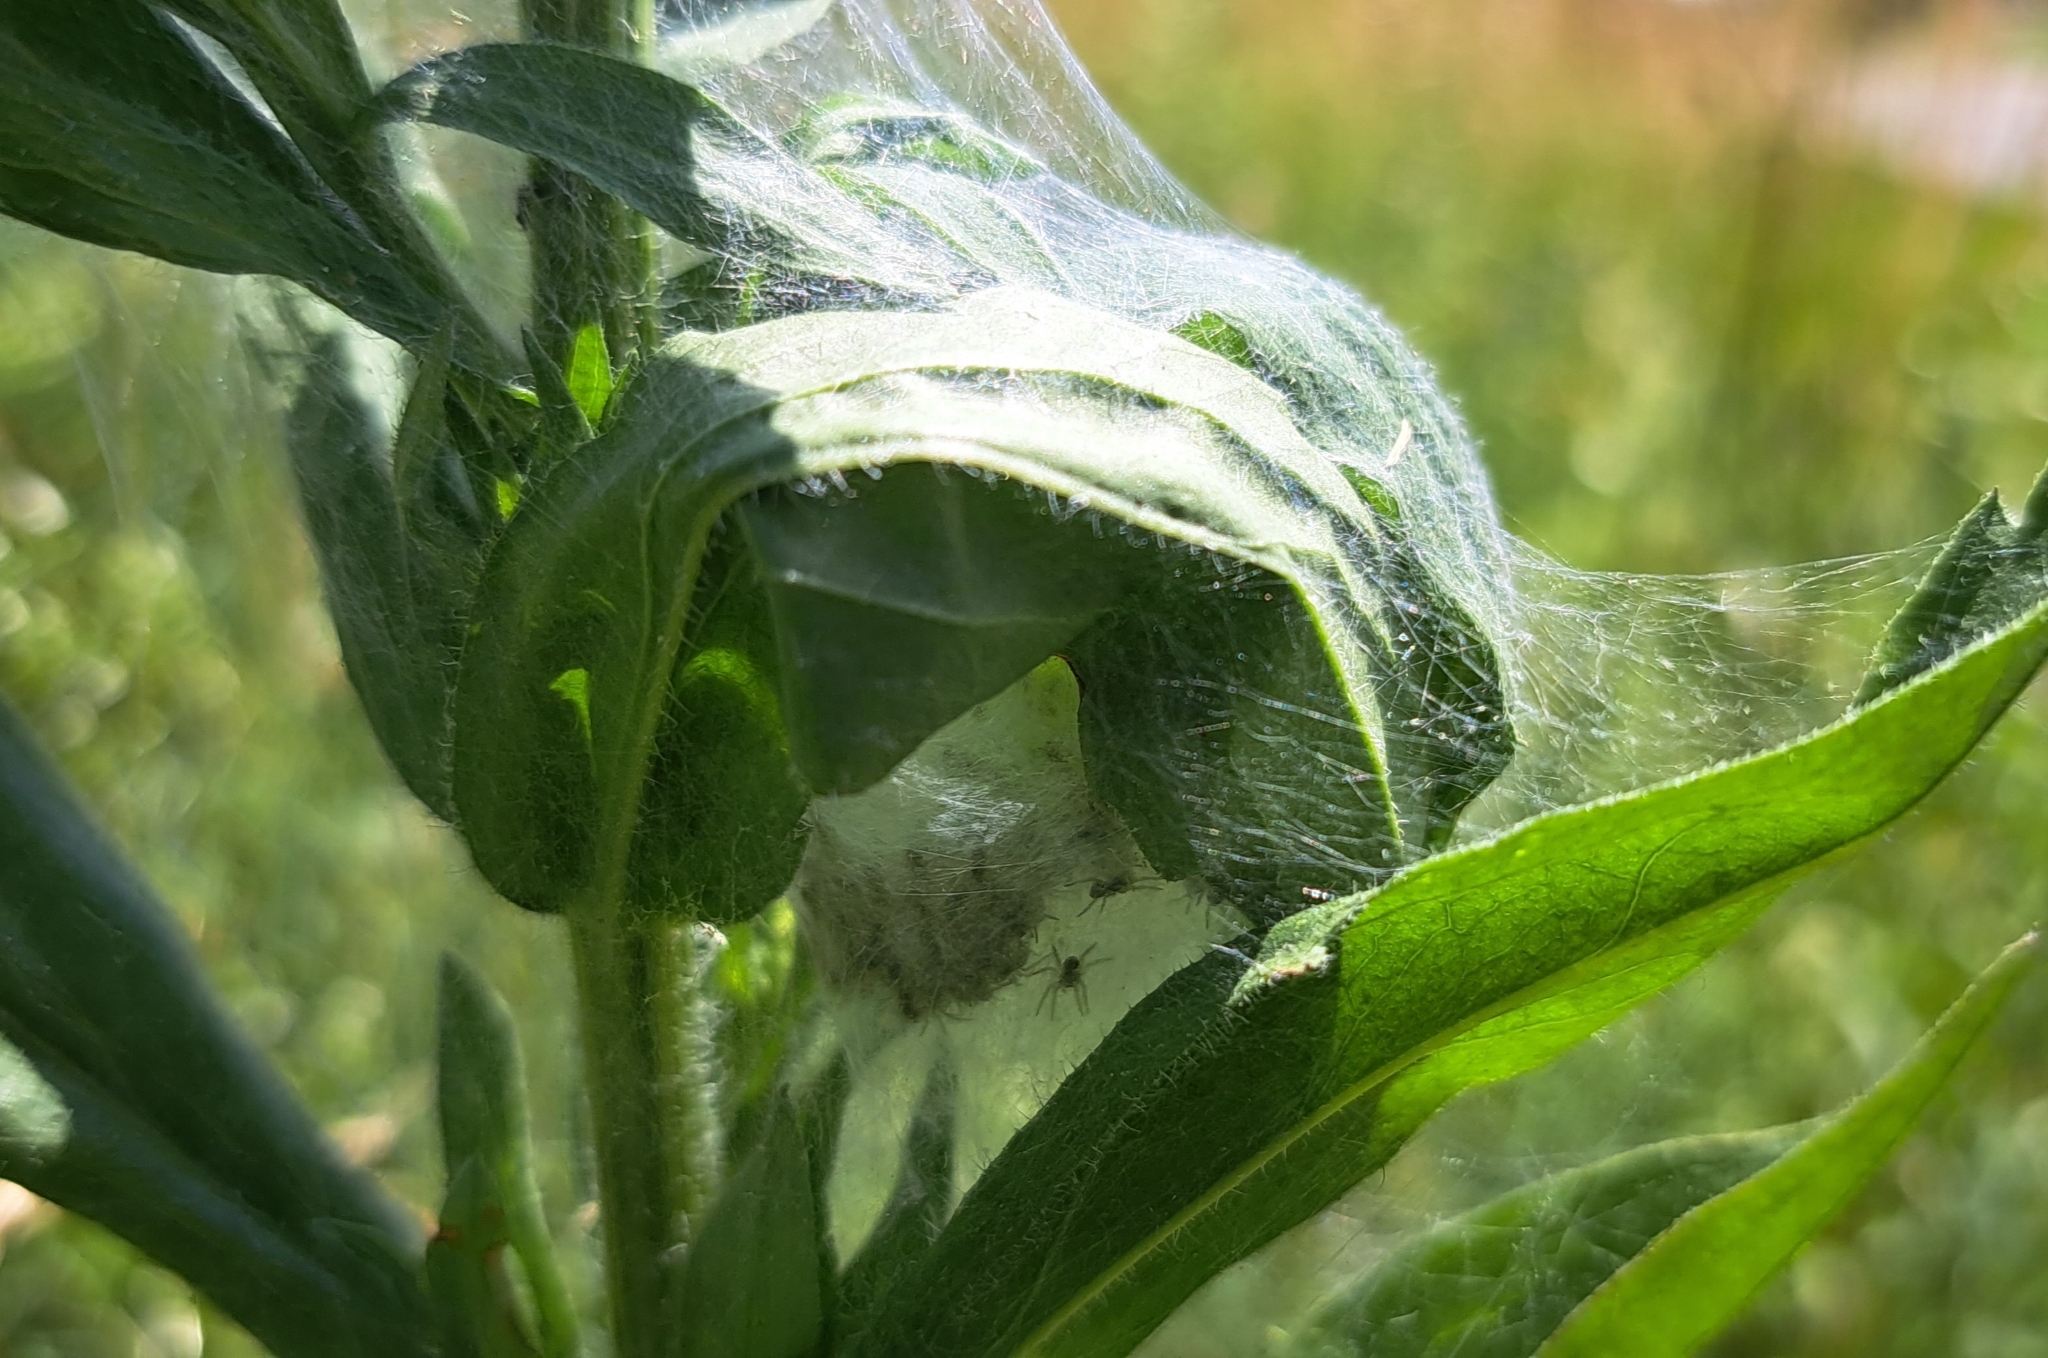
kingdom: Animalia
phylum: Arthropoda
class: Arachnida
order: Araneae
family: Pisauridae
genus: Pisaura
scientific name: Pisaura mirabilis
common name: Tent spider
